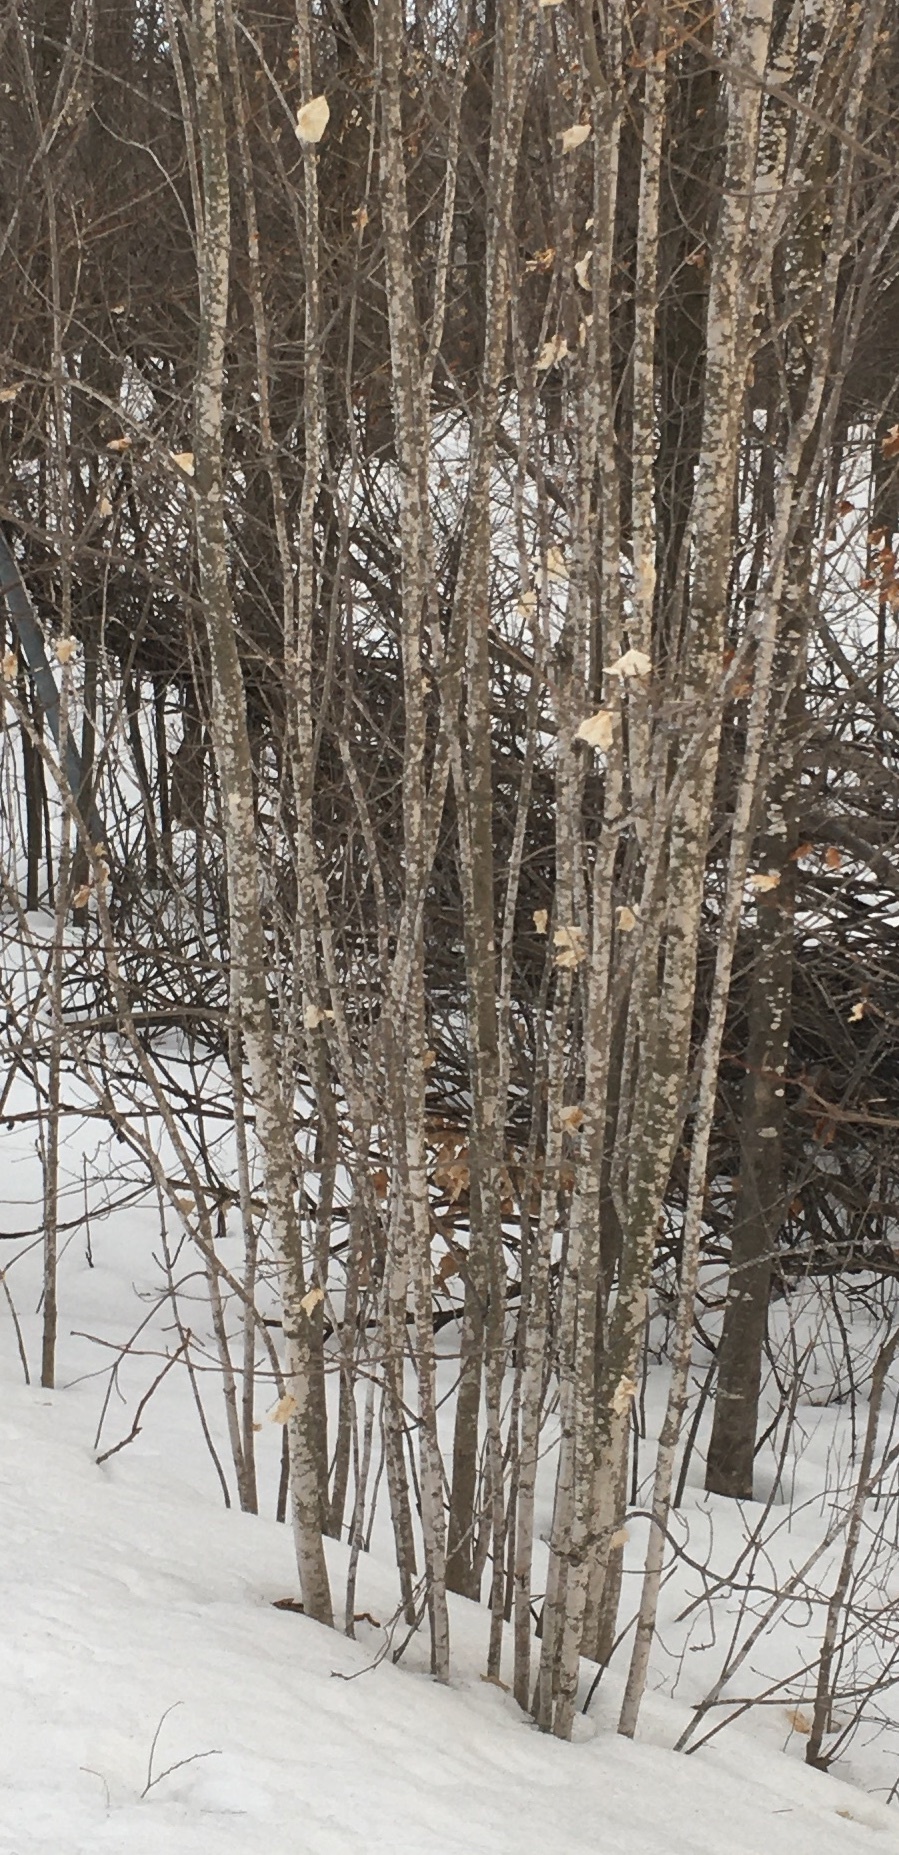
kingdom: Plantae
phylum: Tracheophyta
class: Magnoliopsida
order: Sapindales
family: Sapindaceae
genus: Acer
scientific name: Acer saccharum
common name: Sugar maple
